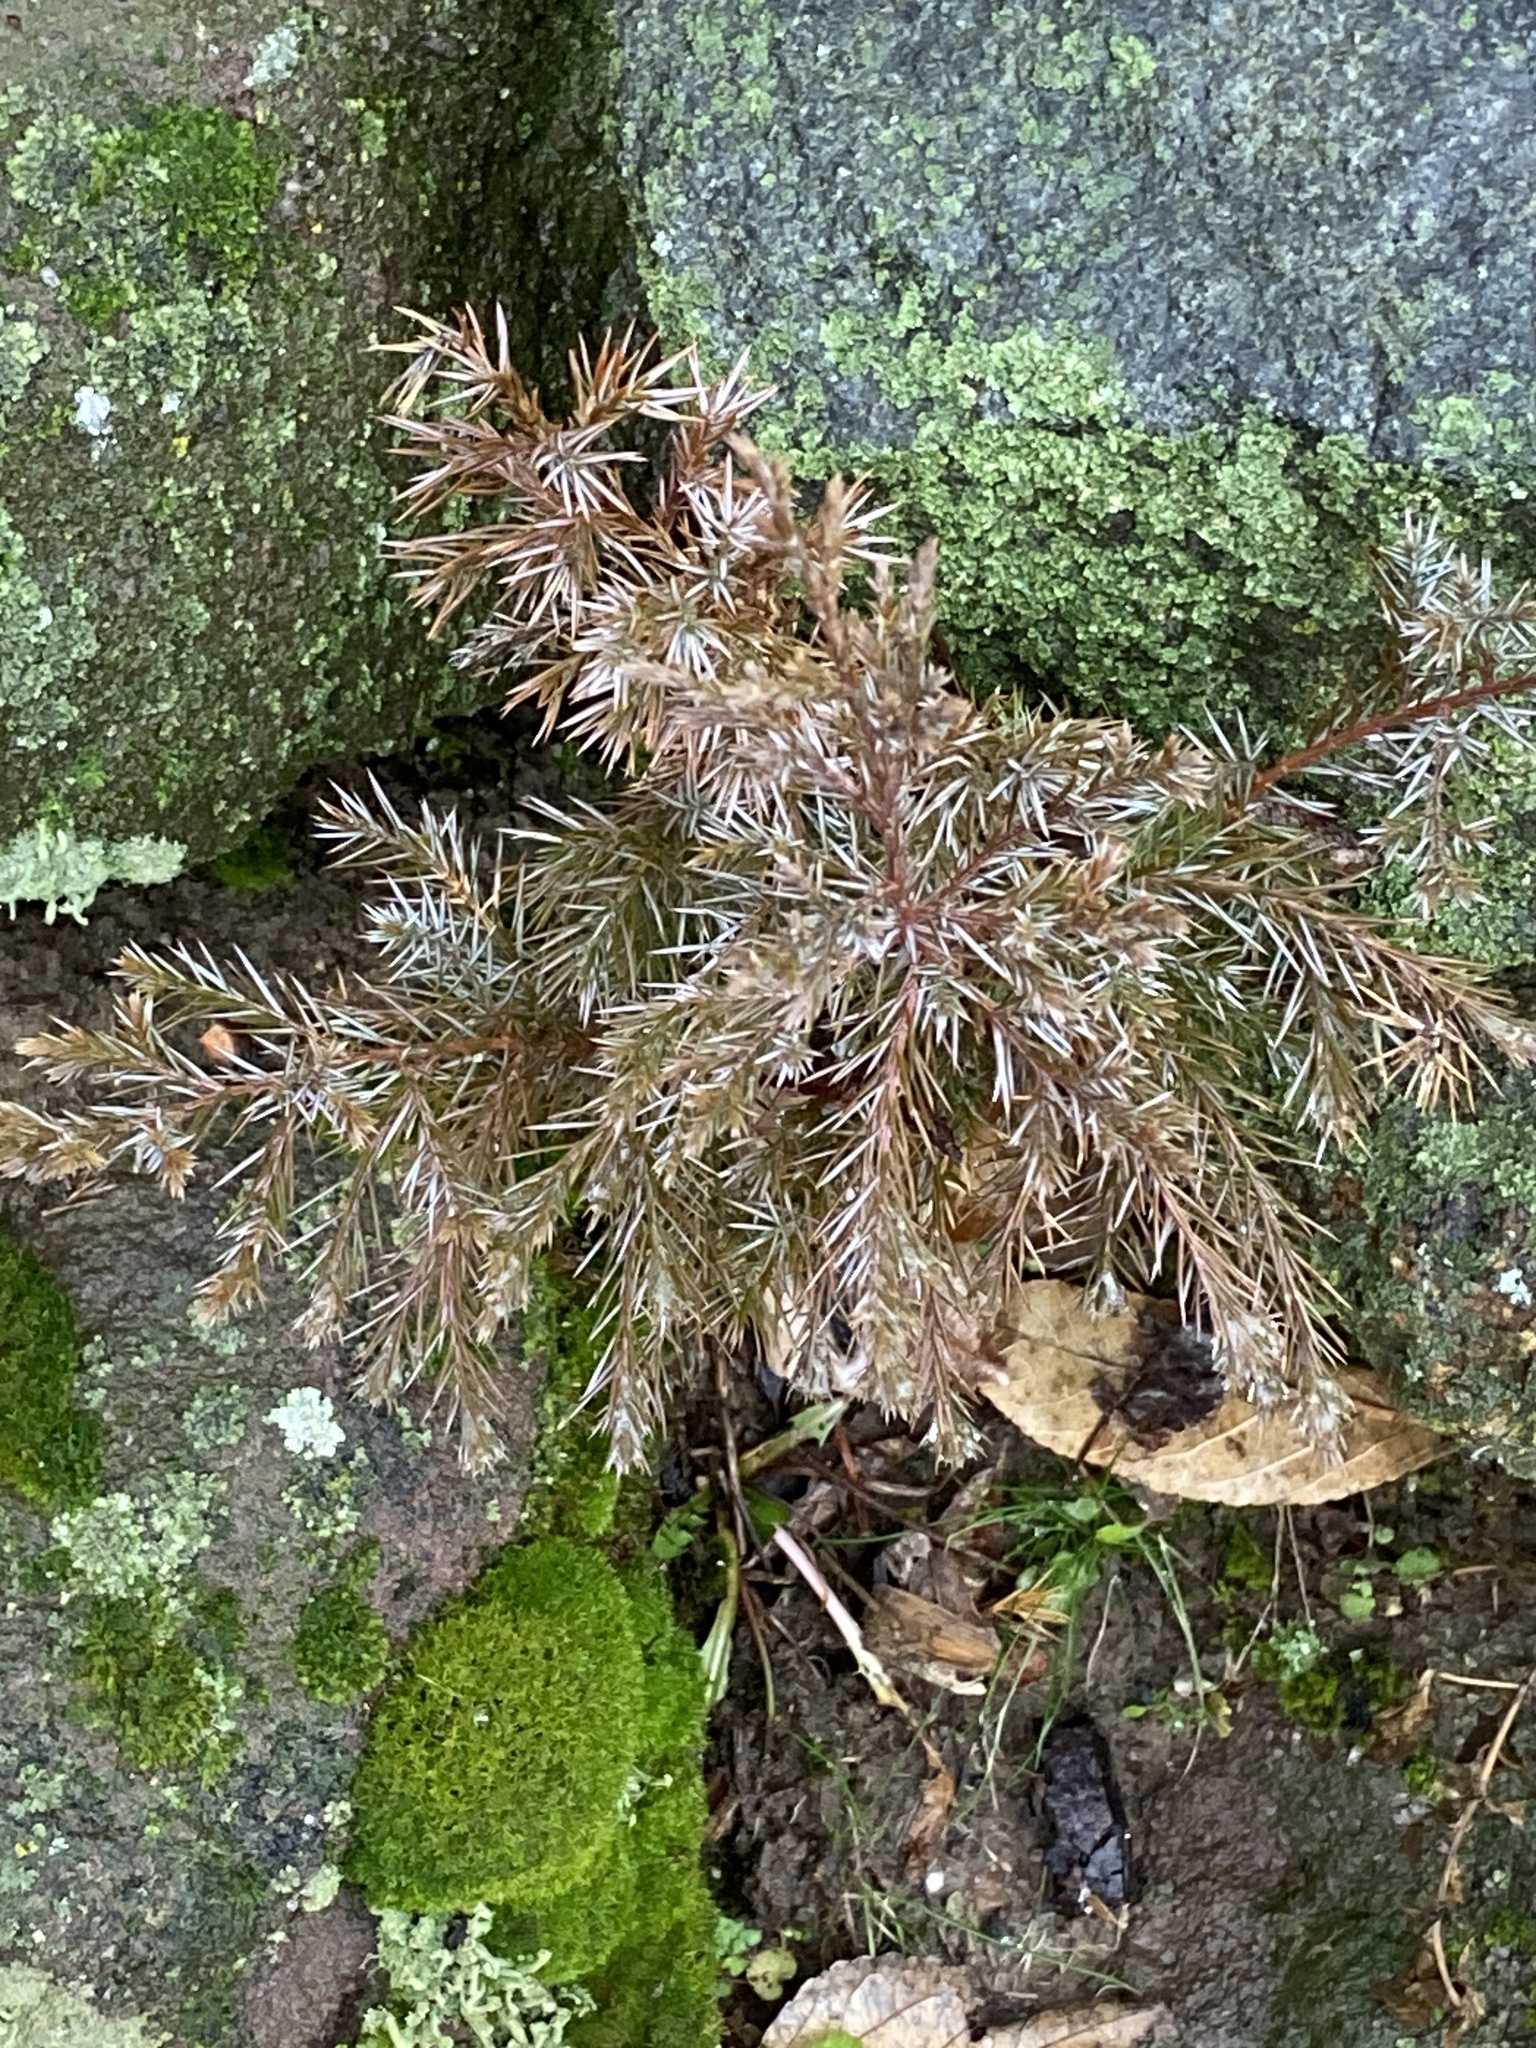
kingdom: Plantae
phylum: Tracheophyta
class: Pinopsida
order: Pinales
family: Cupressaceae
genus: Juniperus
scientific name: Juniperus virginiana
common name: Red juniper
